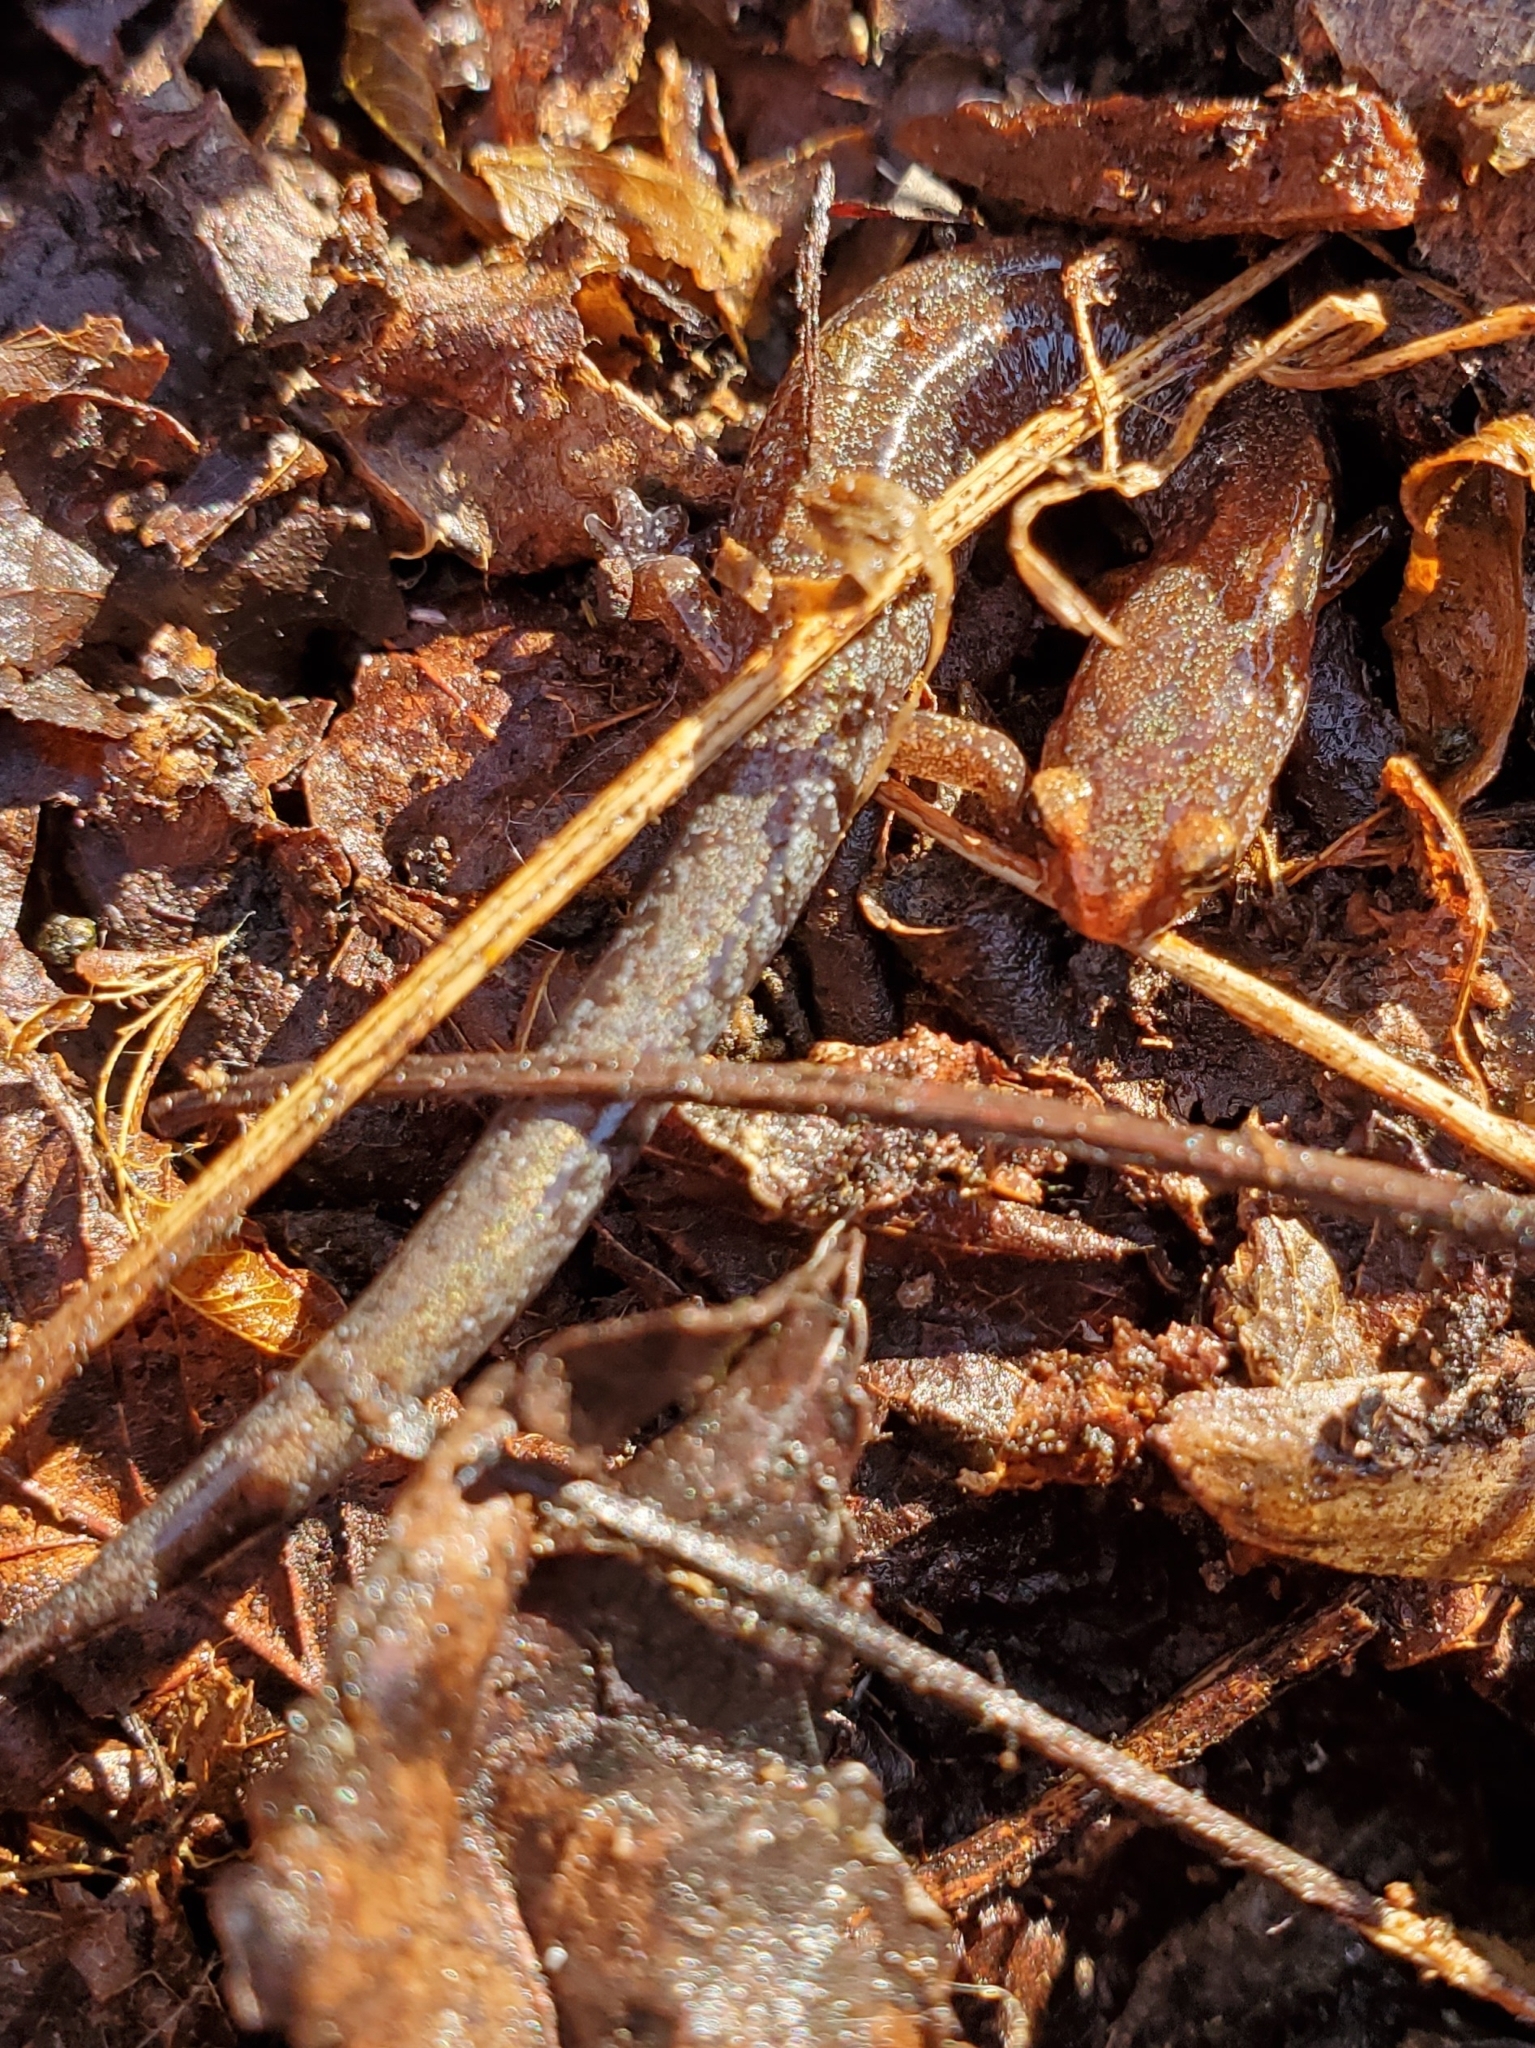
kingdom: Animalia
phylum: Chordata
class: Amphibia
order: Caudata
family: Plethodontidae
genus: Plethodon
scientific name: Plethodon ventralis
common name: Southern zigzag salamander
